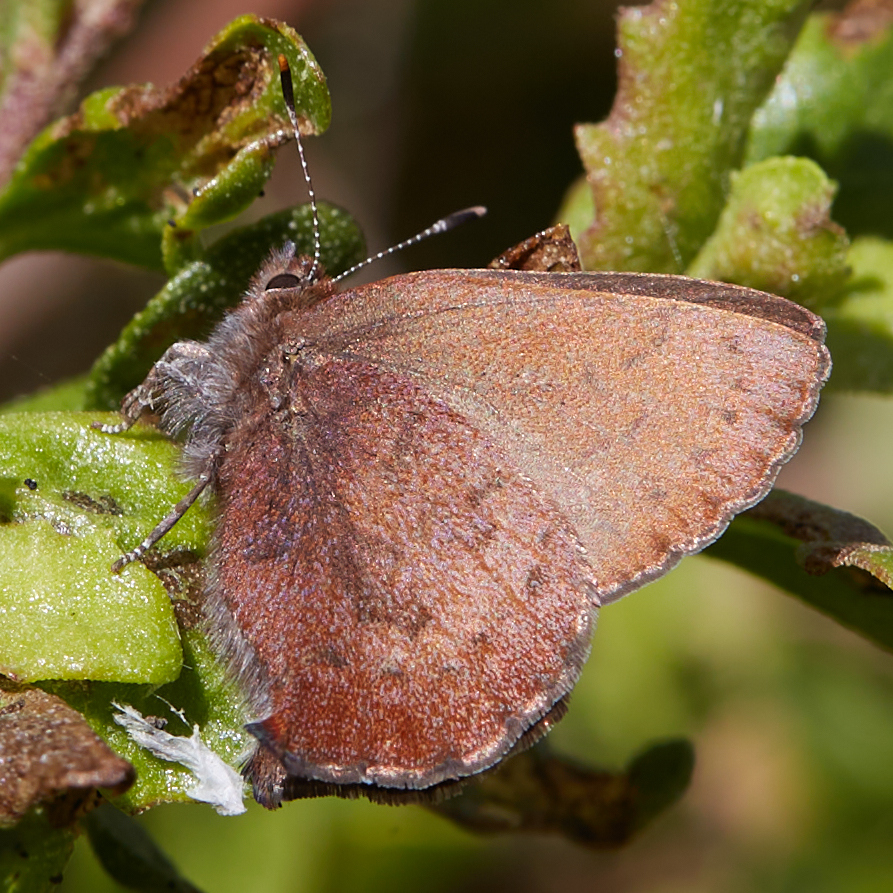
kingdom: Animalia
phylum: Arthropoda
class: Insecta
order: Lepidoptera
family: Lycaenidae
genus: Incisalia
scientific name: Incisalia irioides
